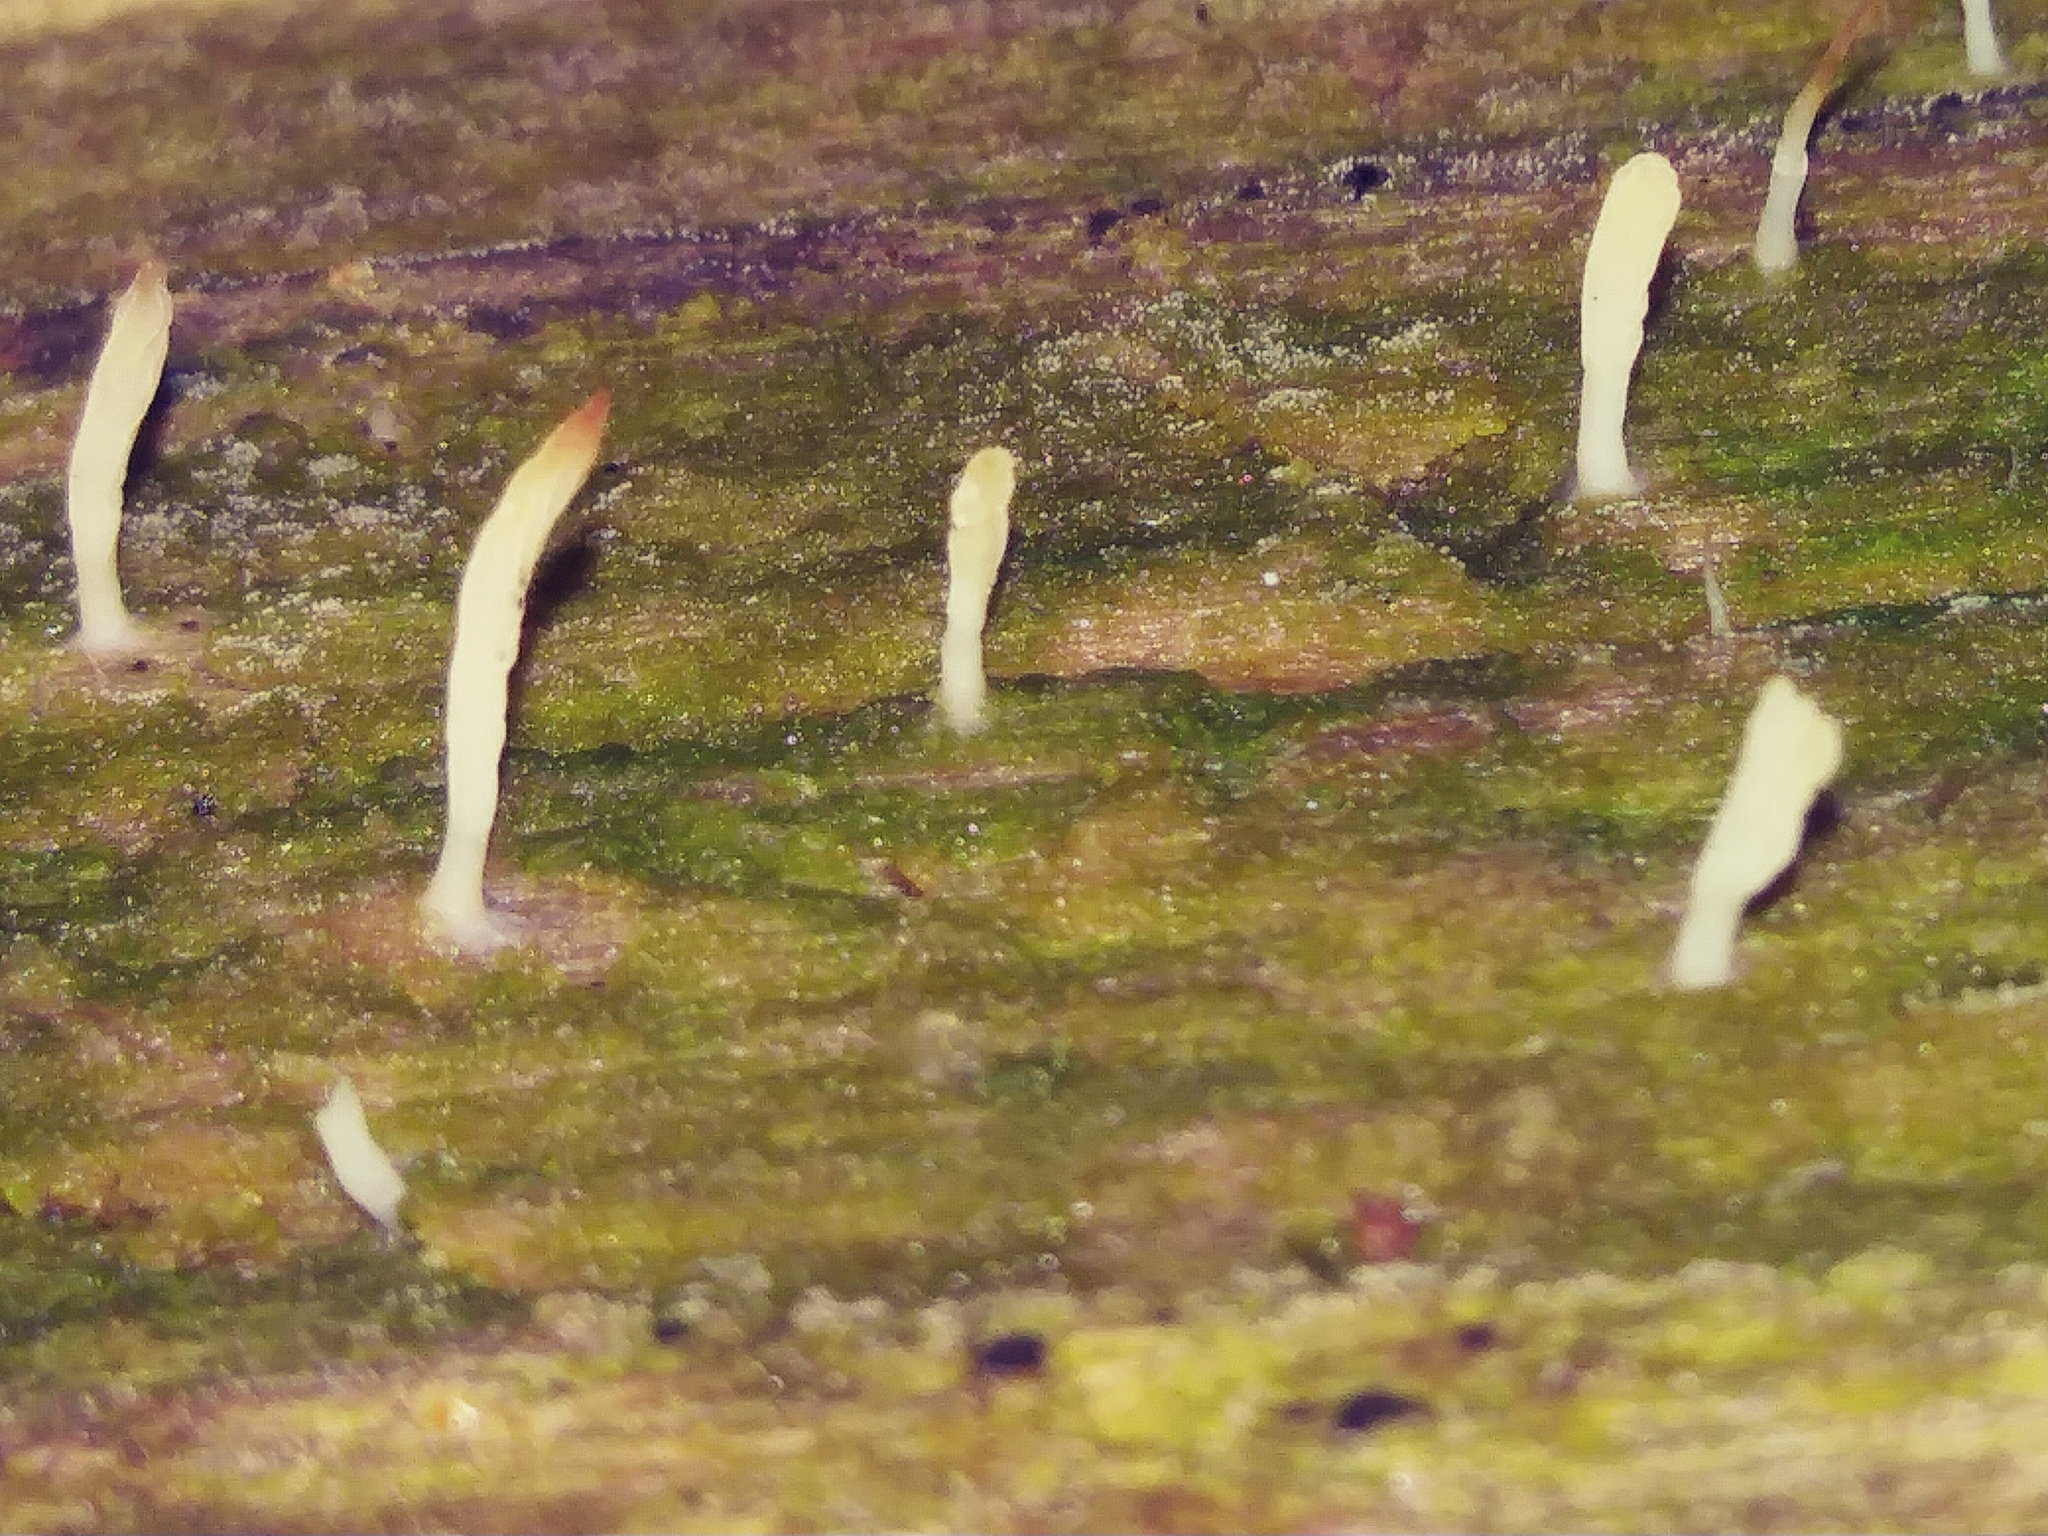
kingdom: Fungi
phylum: Basidiomycota
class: Agaricomycetes
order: Cantharellales
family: Hydnaceae
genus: Multiclavula
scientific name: Multiclavula mucida
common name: White green-algae coral
